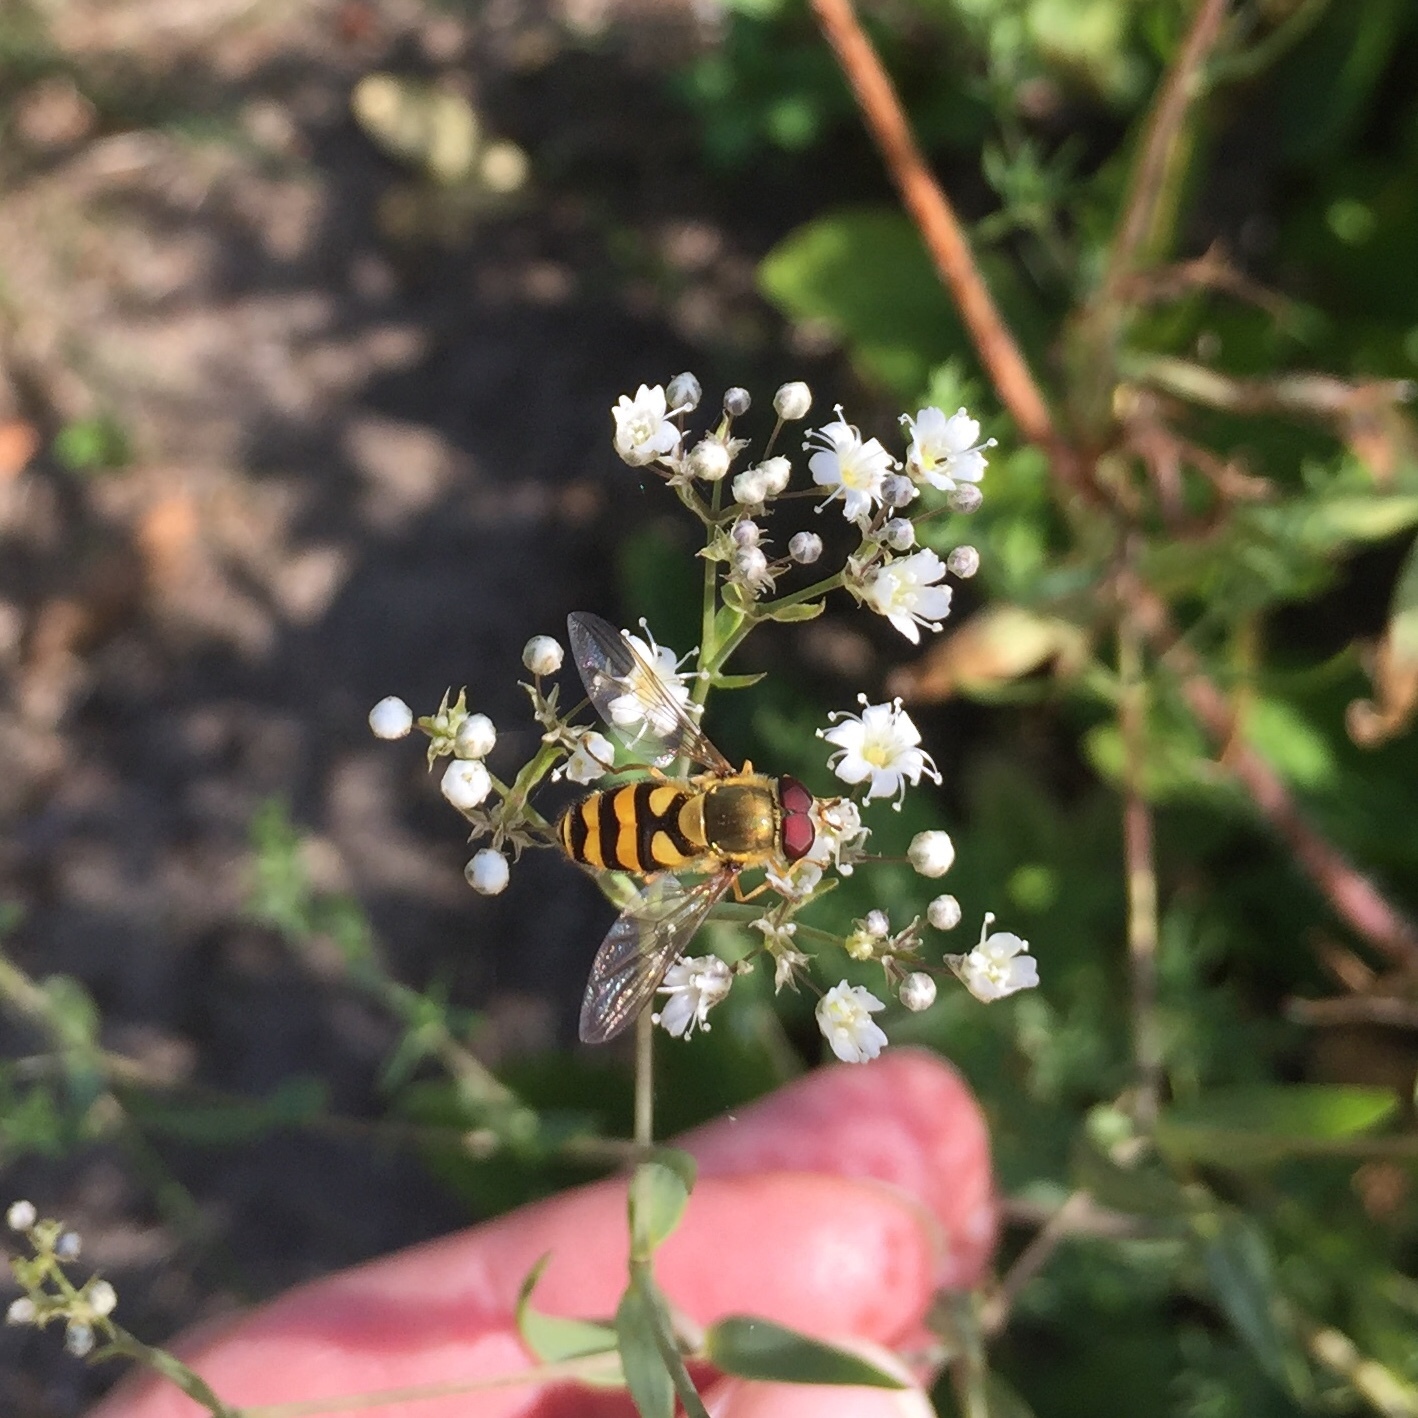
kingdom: Animalia
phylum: Arthropoda
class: Insecta
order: Diptera
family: Syrphidae
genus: Syrphus
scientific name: Syrphus
